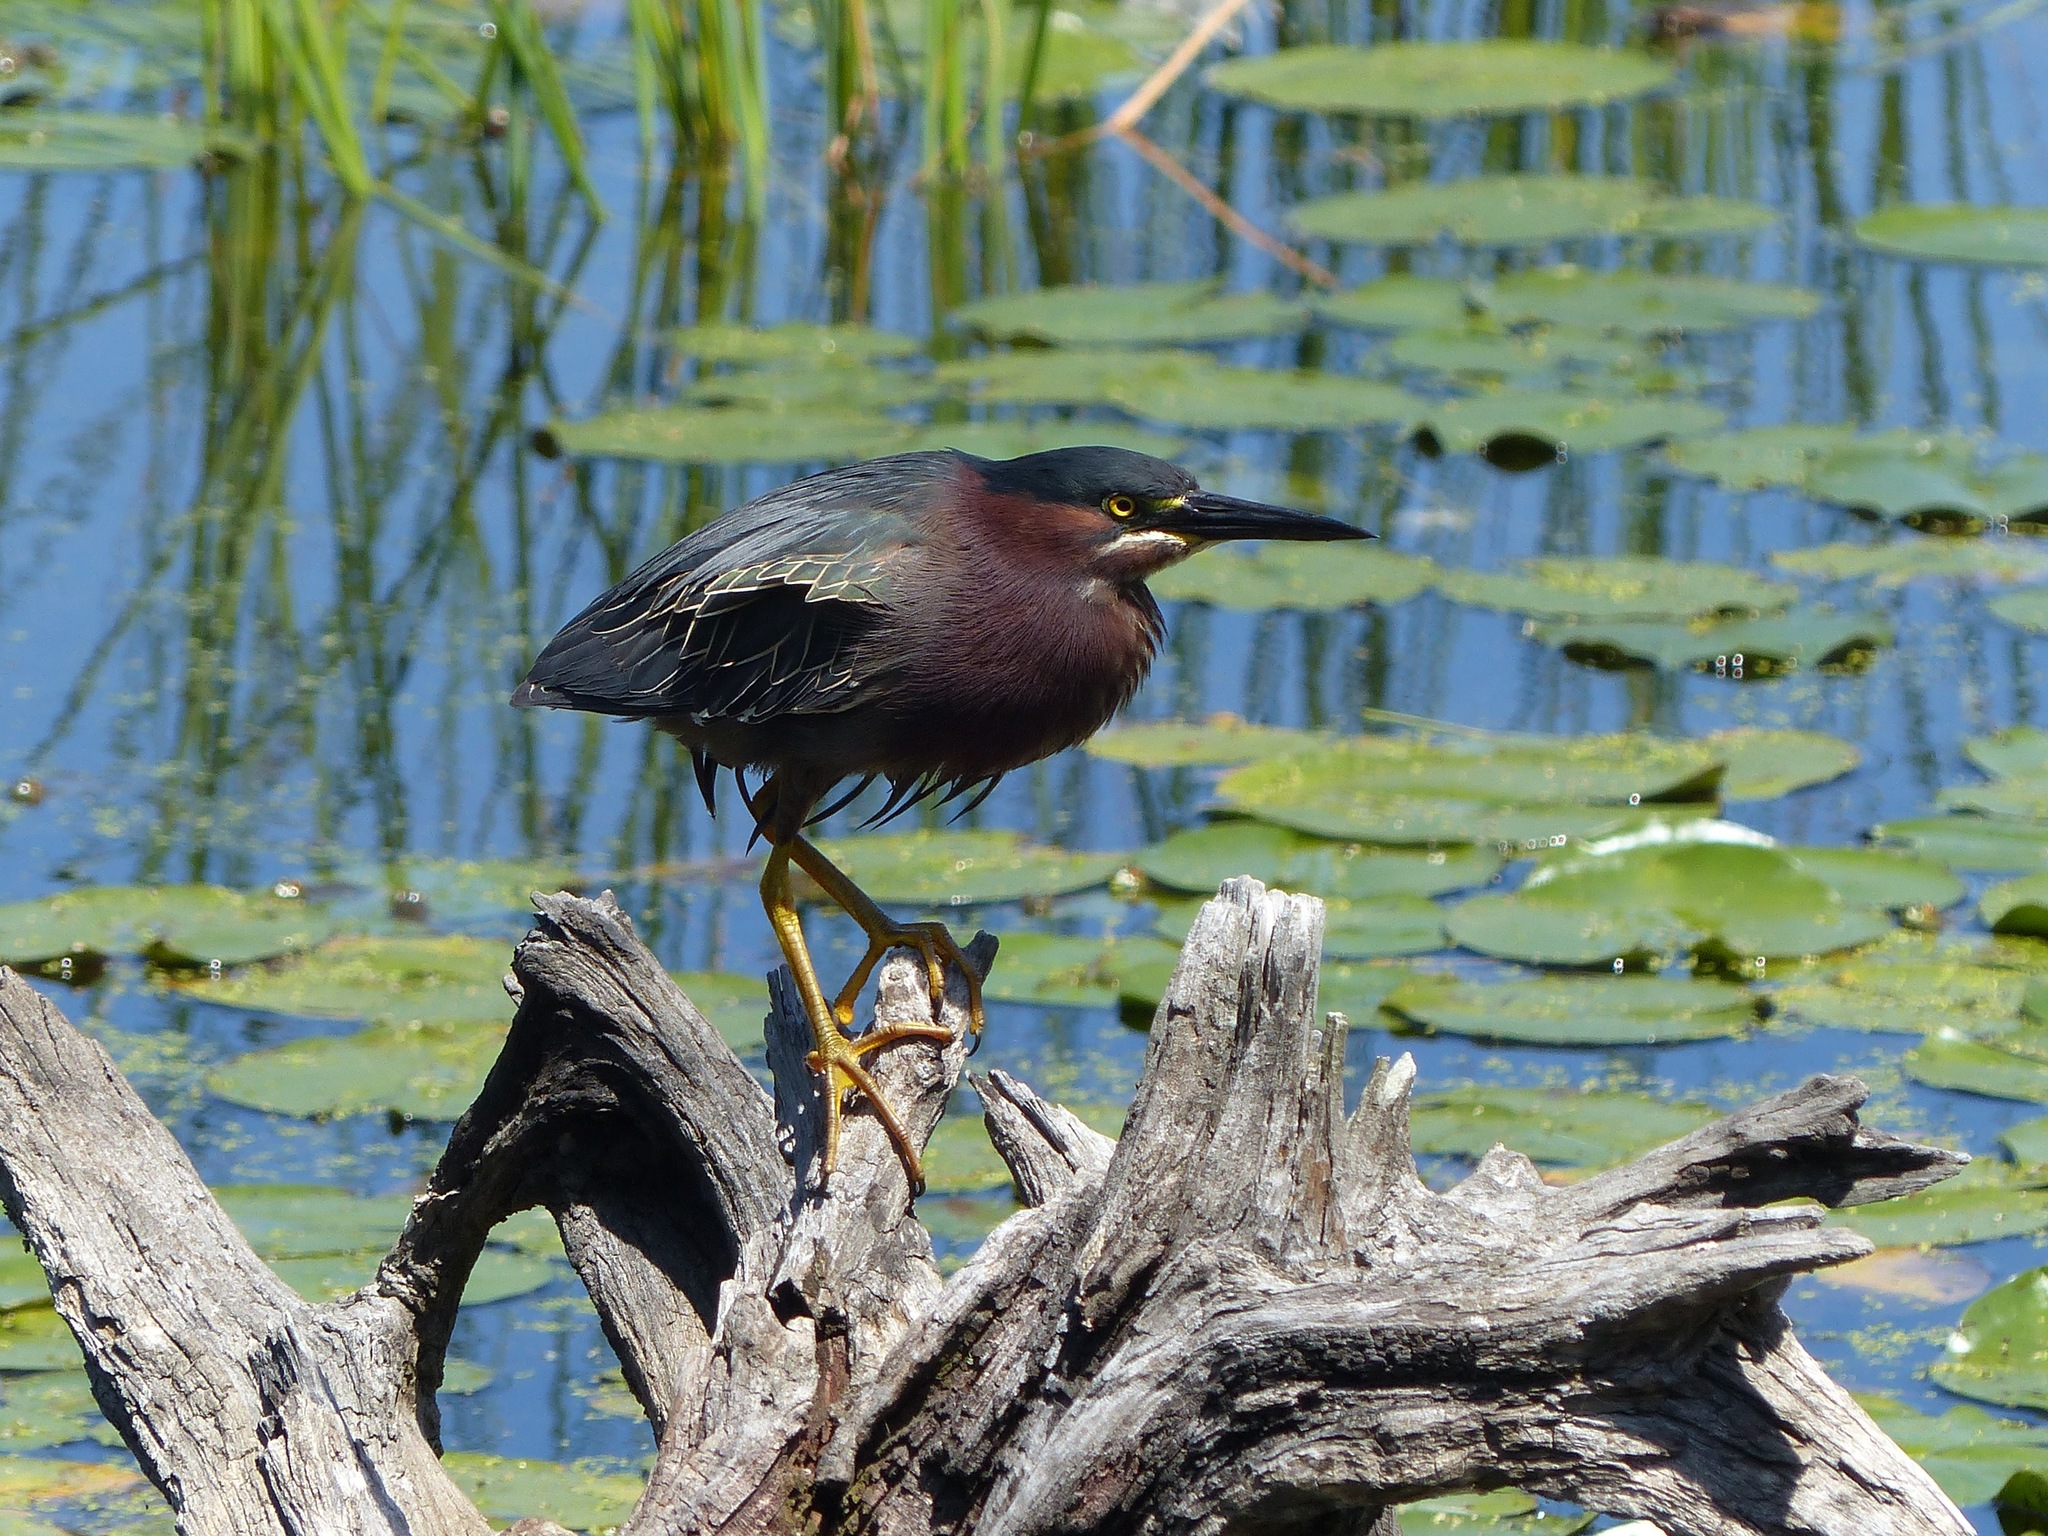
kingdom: Animalia
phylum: Chordata
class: Aves
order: Pelecaniformes
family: Ardeidae
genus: Butorides
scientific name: Butorides virescens
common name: Green heron
